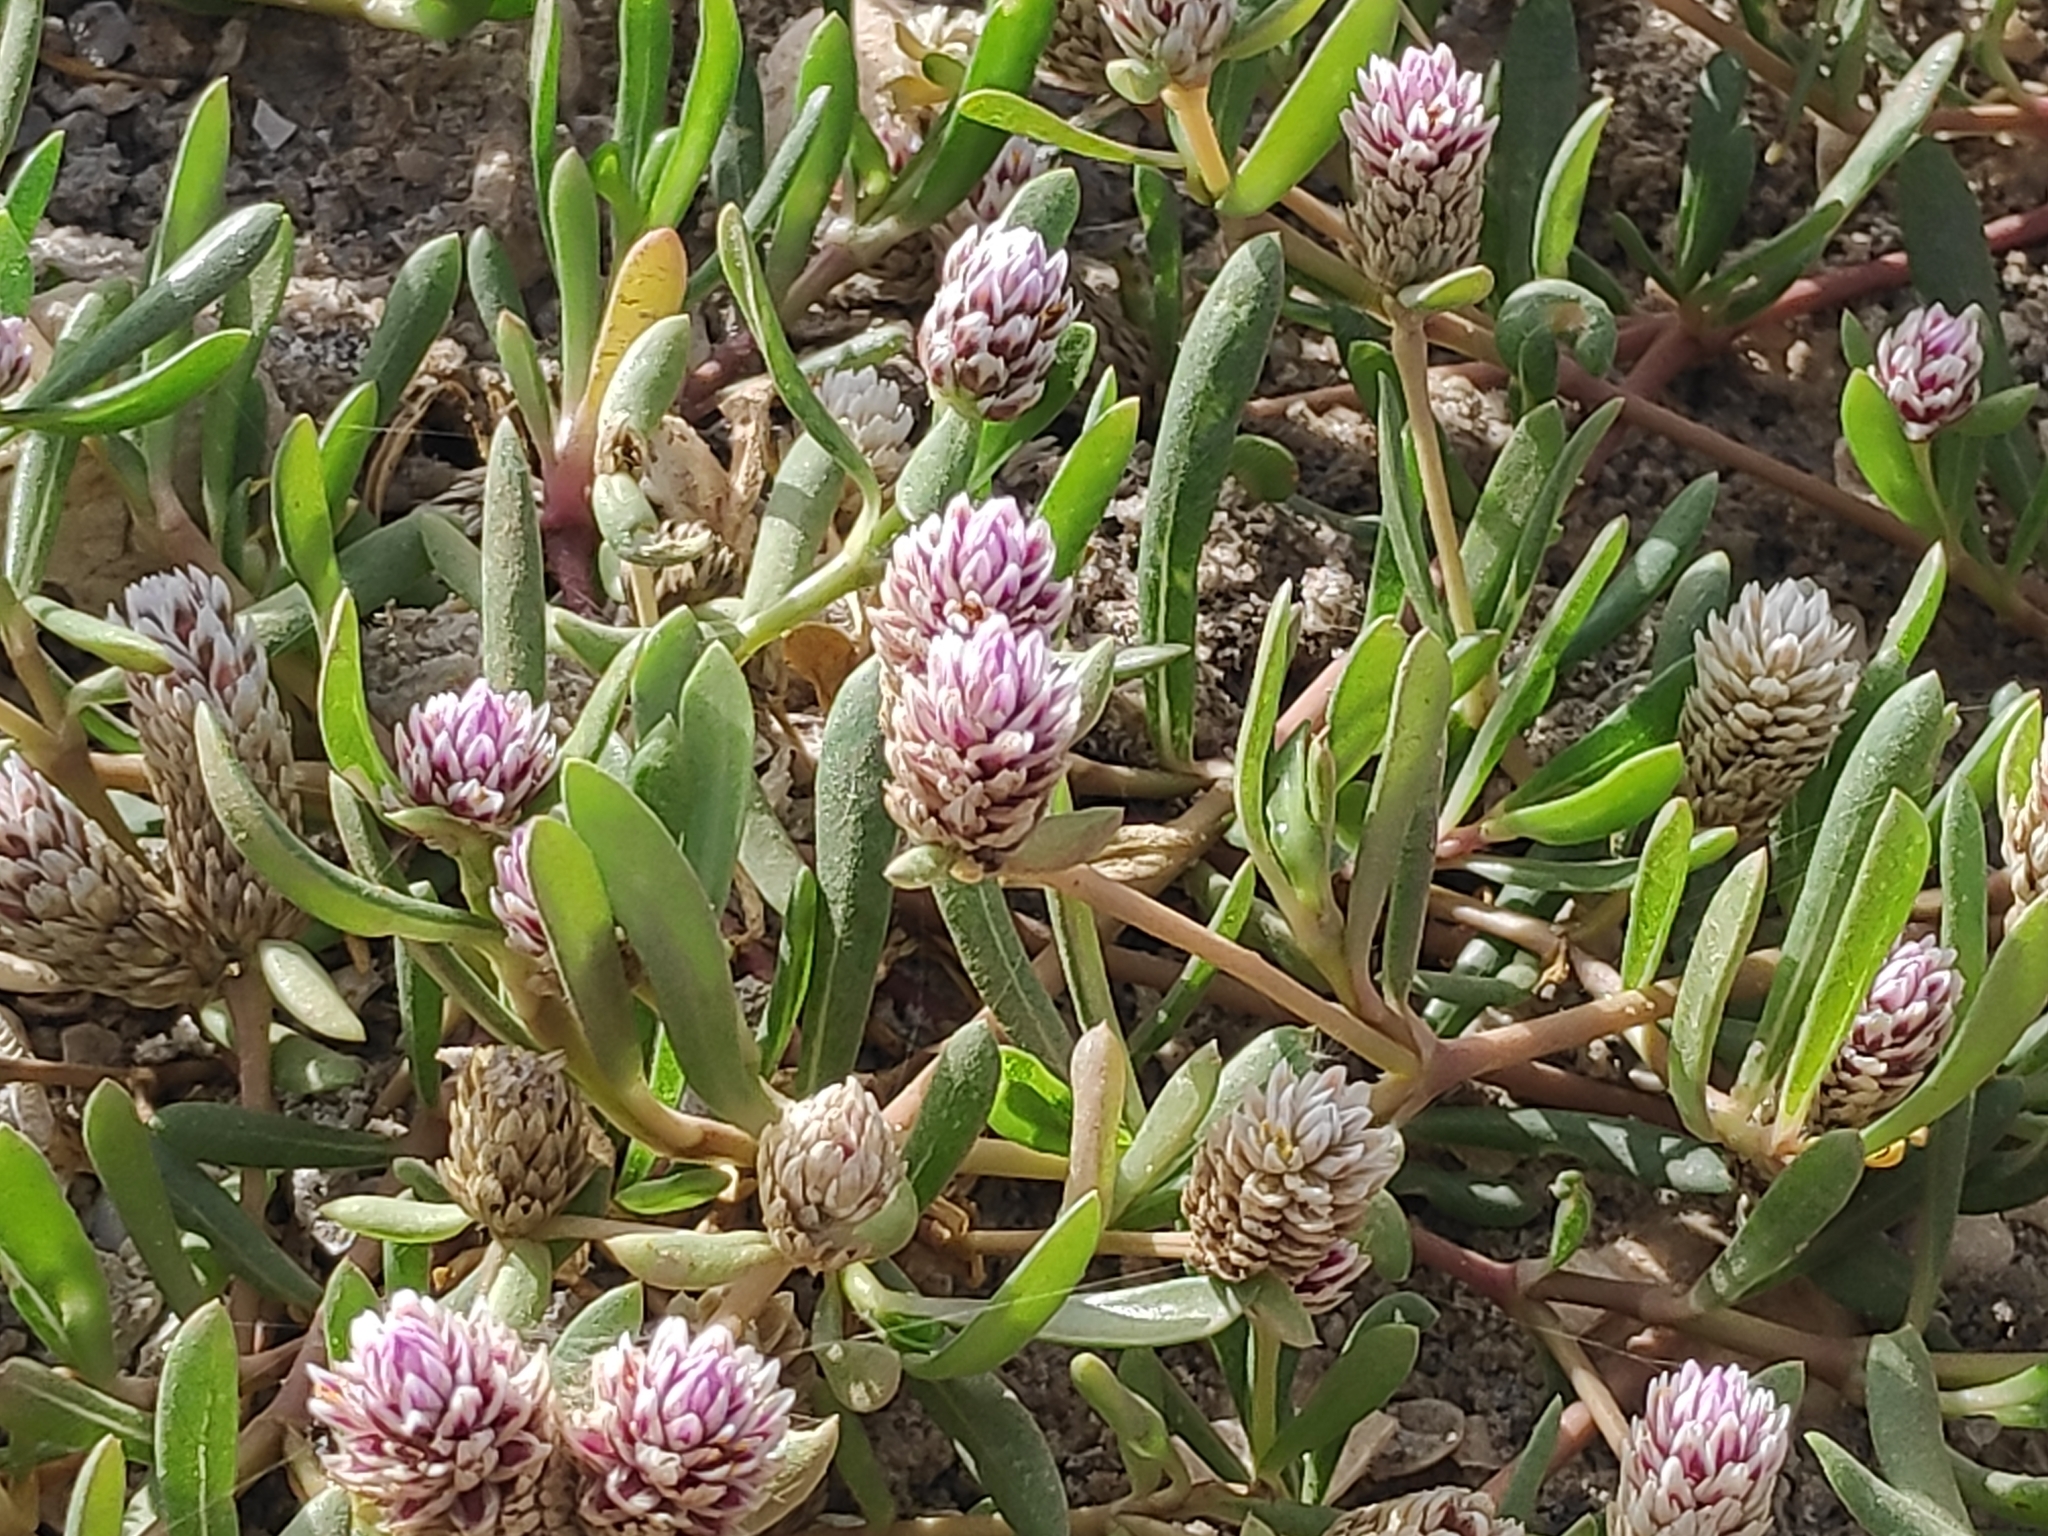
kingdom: Plantae
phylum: Tracheophyta
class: Magnoliopsida
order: Caryophyllales
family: Amaranthaceae
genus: Gomphrena
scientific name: Gomphrena vermicularis
